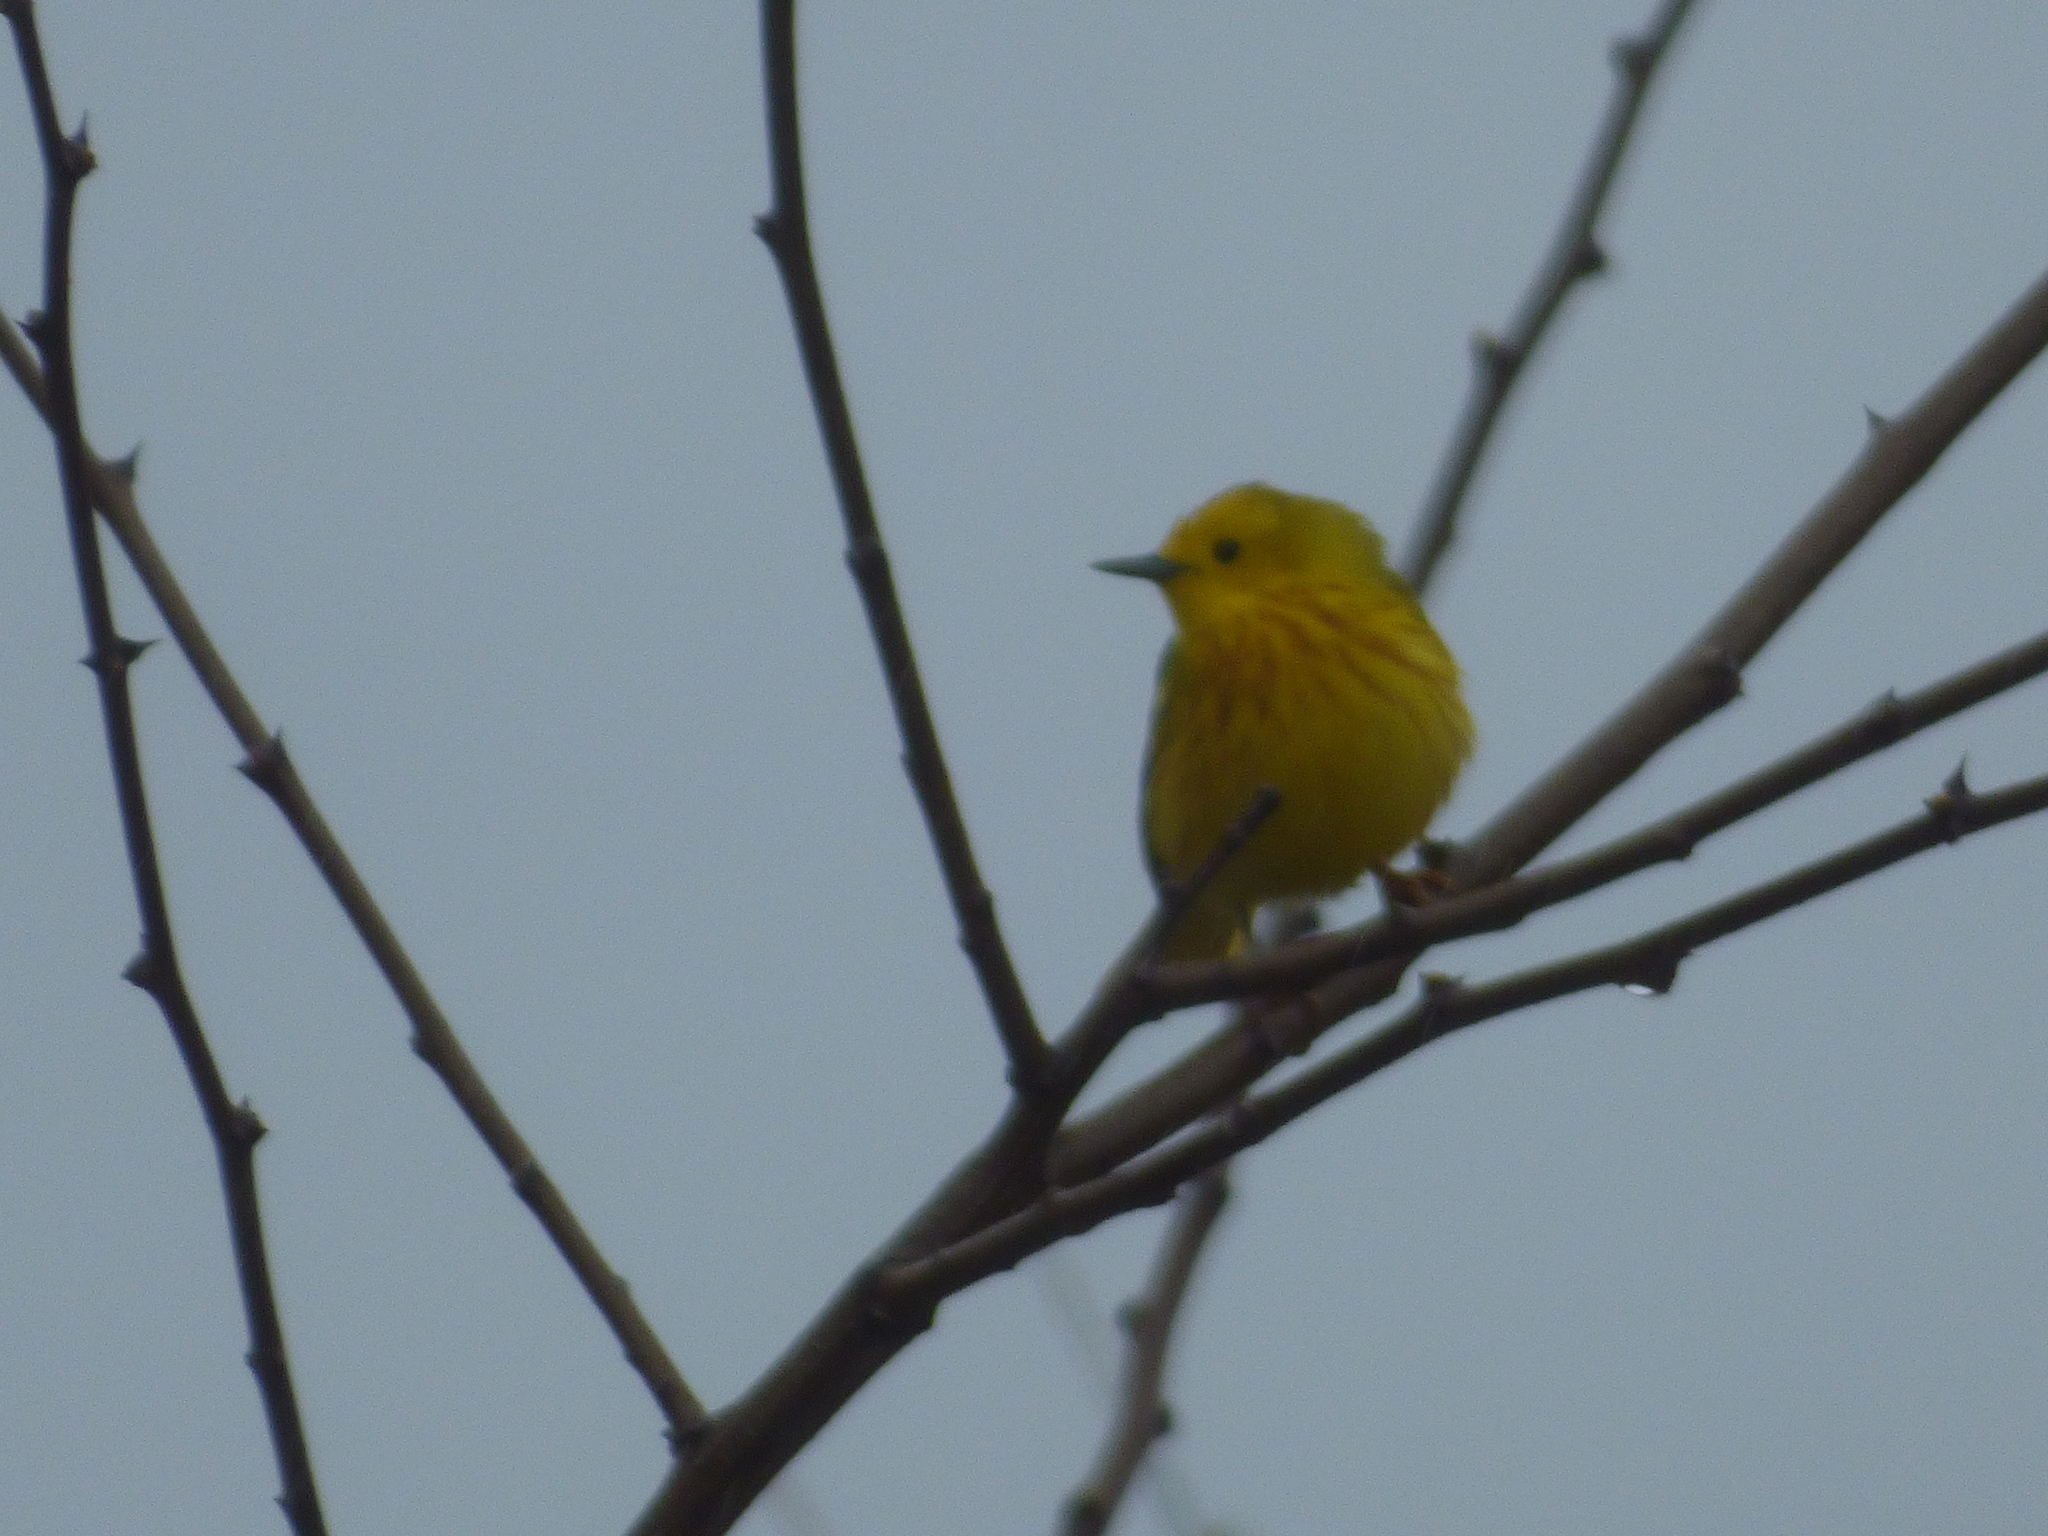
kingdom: Animalia
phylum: Chordata
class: Aves
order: Passeriformes
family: Parulidae
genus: Setophaga
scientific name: Setophaga petechia
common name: Yellow warbler
